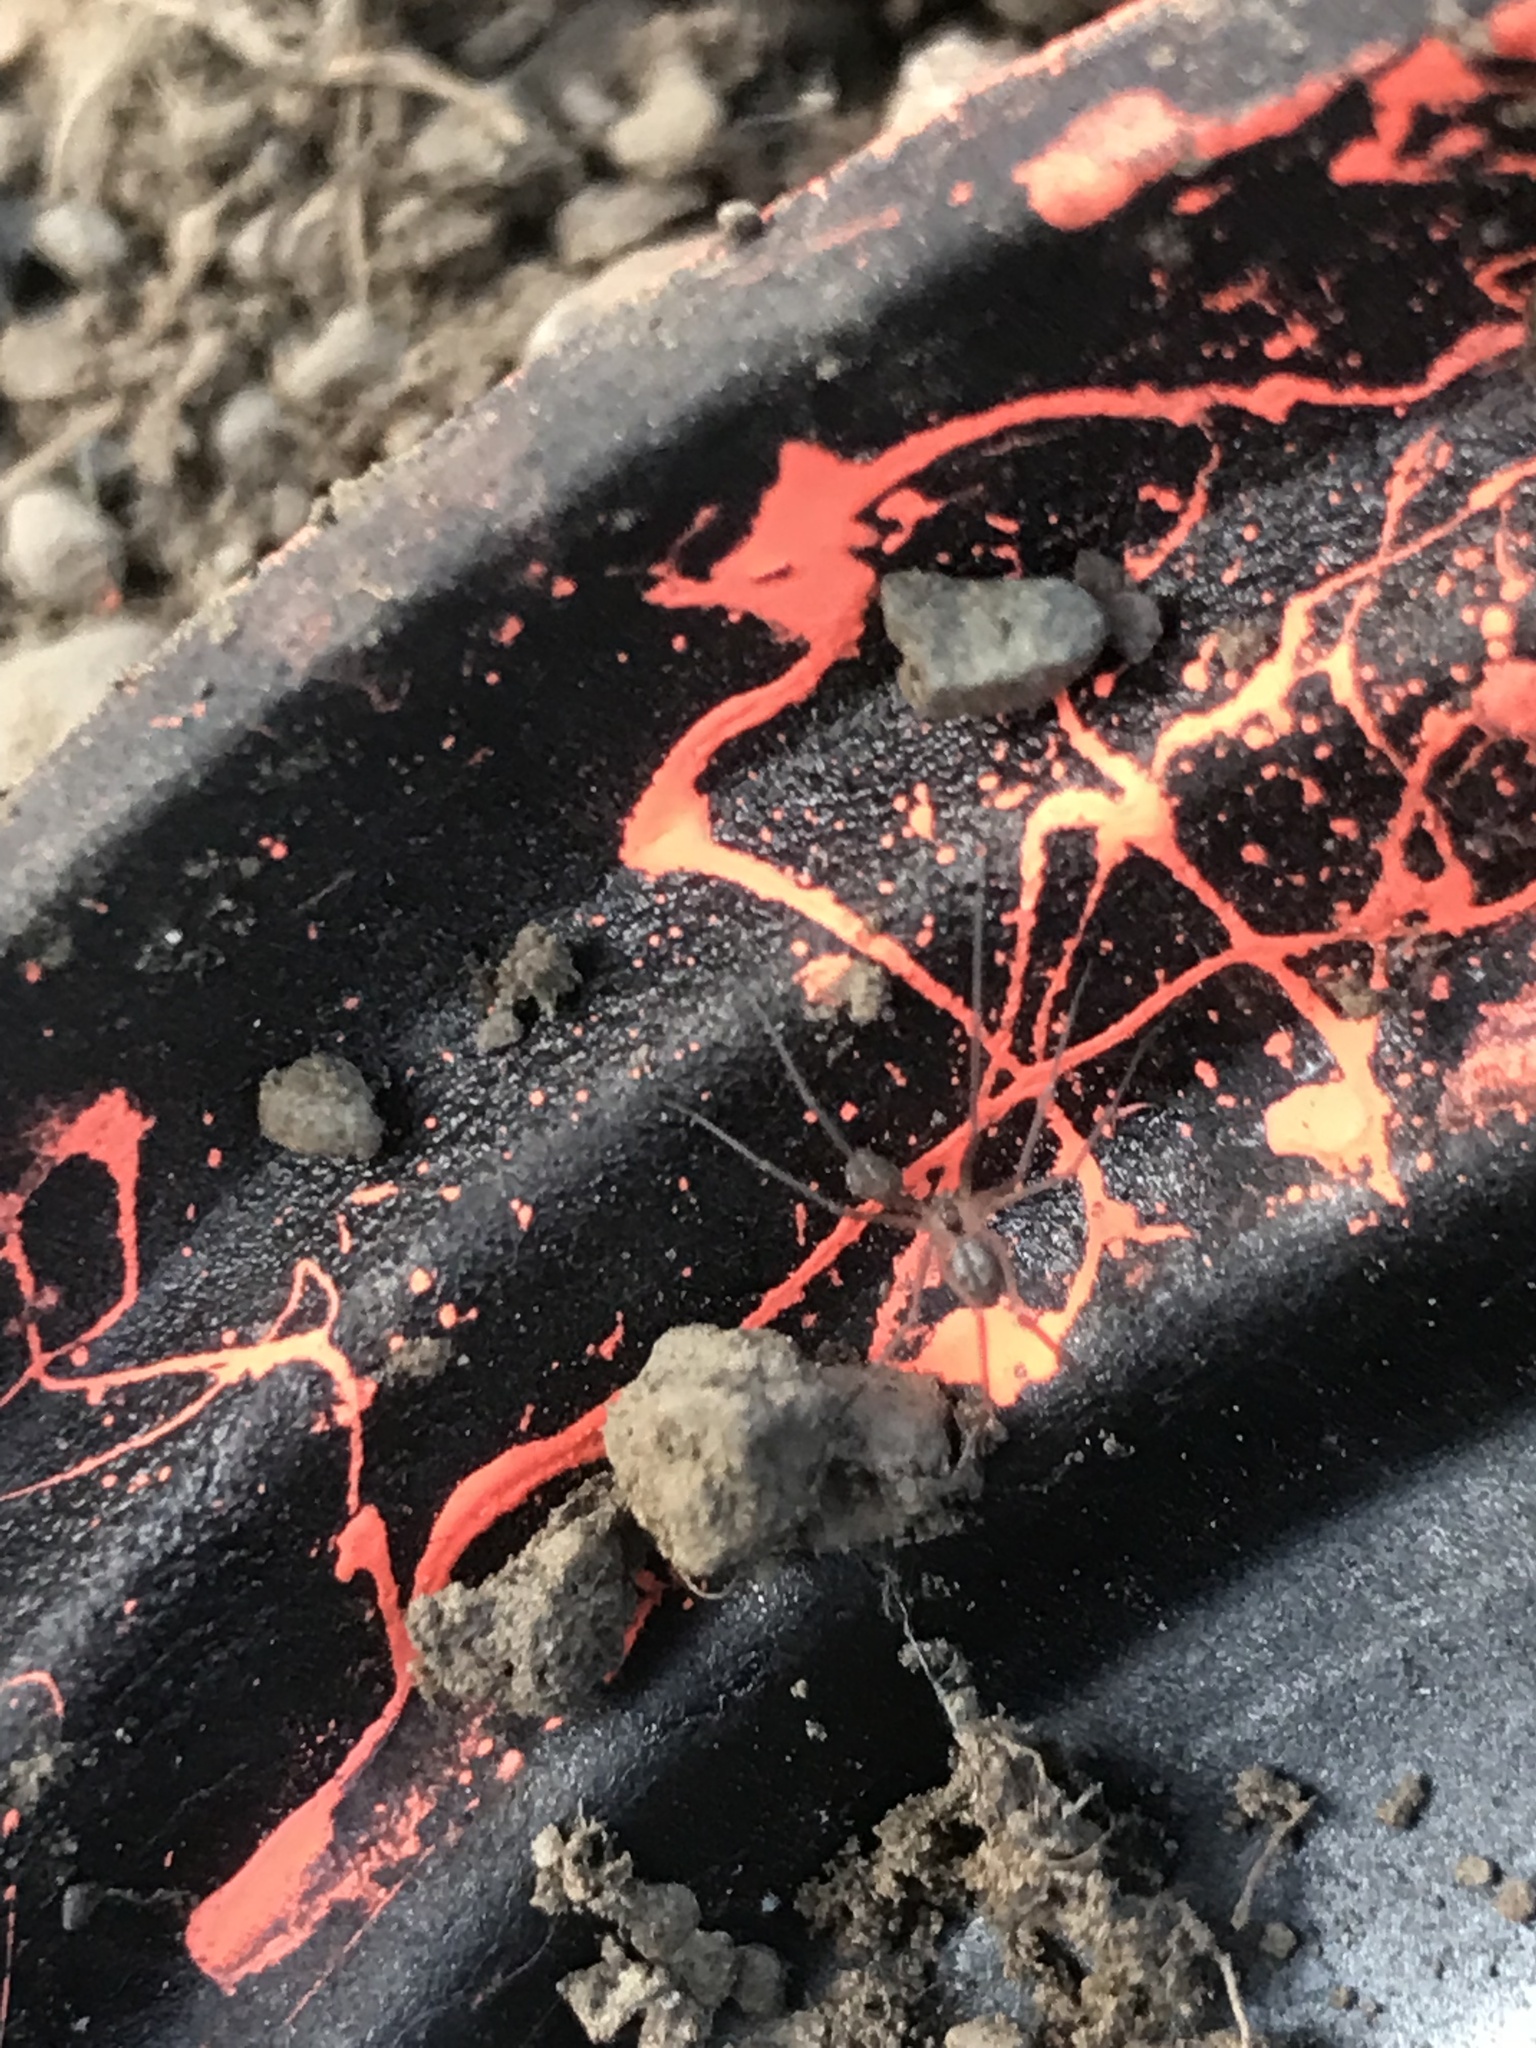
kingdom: Animalia
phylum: Arthropoda
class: Arachnida
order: Araneae
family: Pholcidae
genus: Psilochorus
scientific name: Psilochorus hesperus
